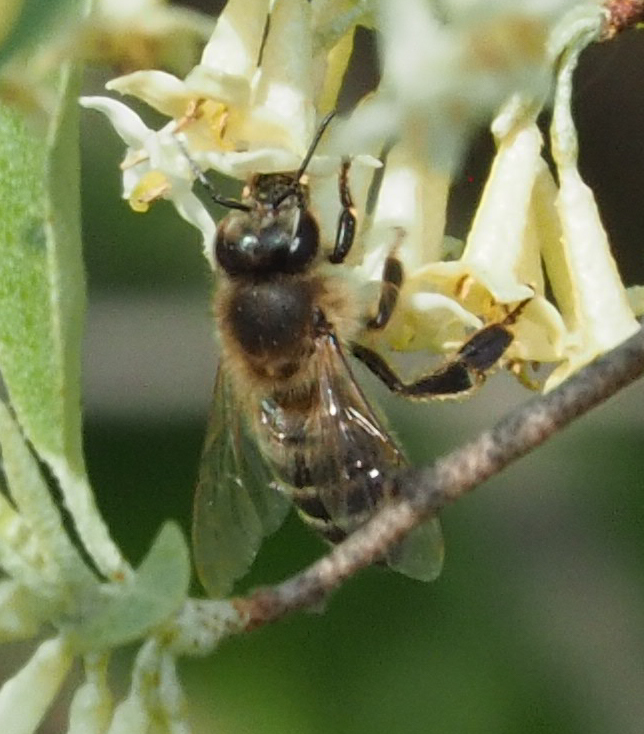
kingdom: Animalia
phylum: Arthropoda
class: Insecta
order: Hymenoptera
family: Apidae
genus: Apis
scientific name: Apis mellifera
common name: Honey bee
